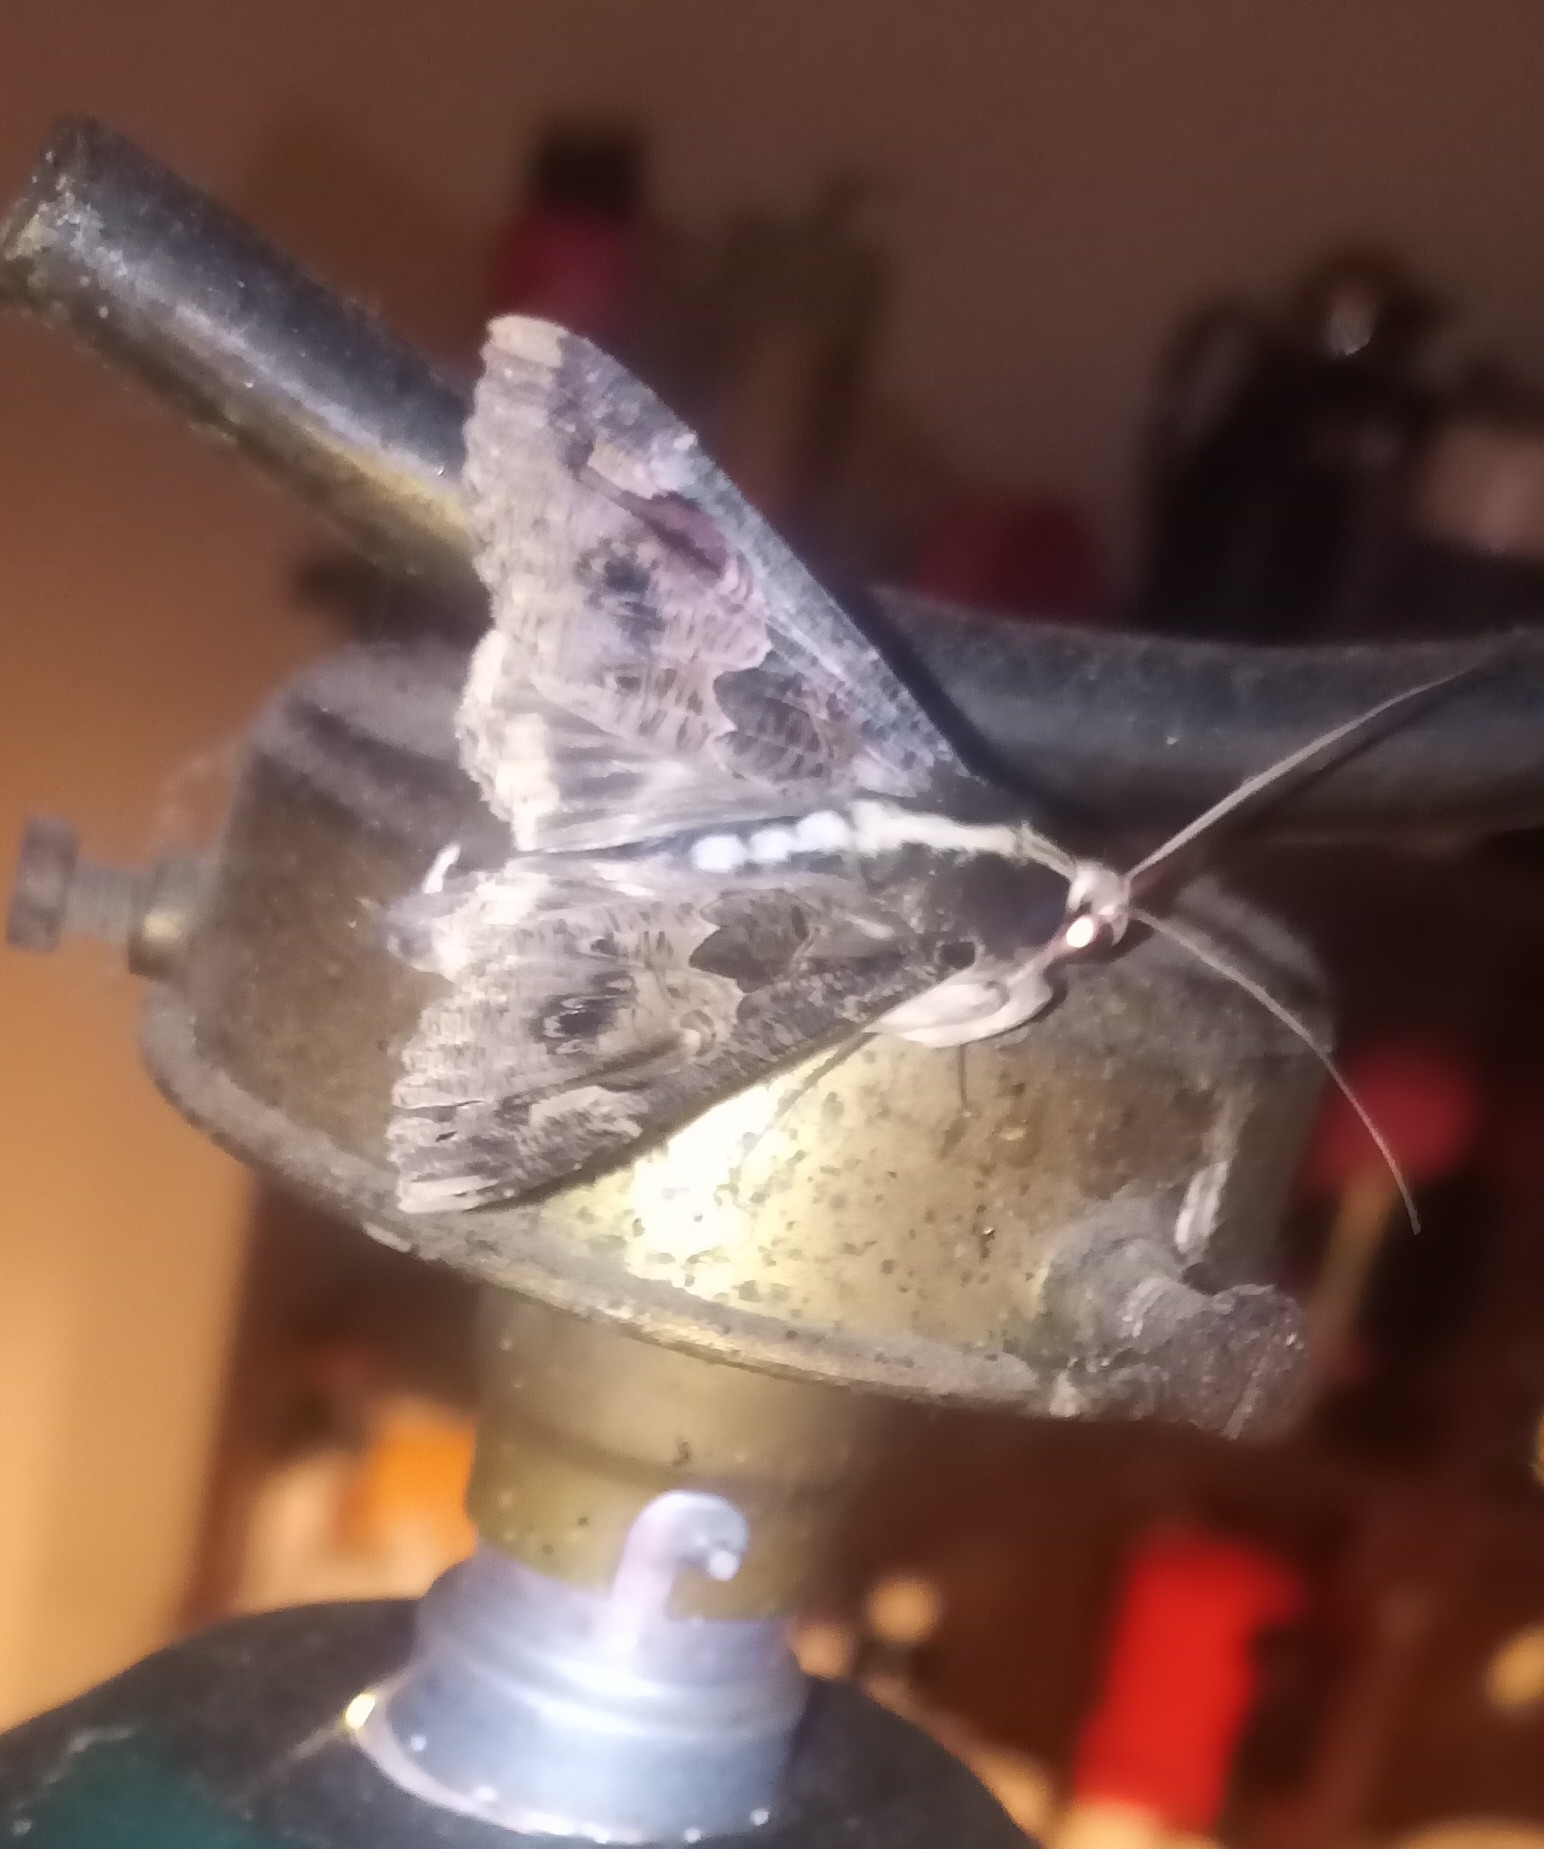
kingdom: Animalia
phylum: Arthropoda
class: Insecta
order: Lepidoptera
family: Erebidae
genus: Sphingomorpha
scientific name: Sphingomorpha chlorea
